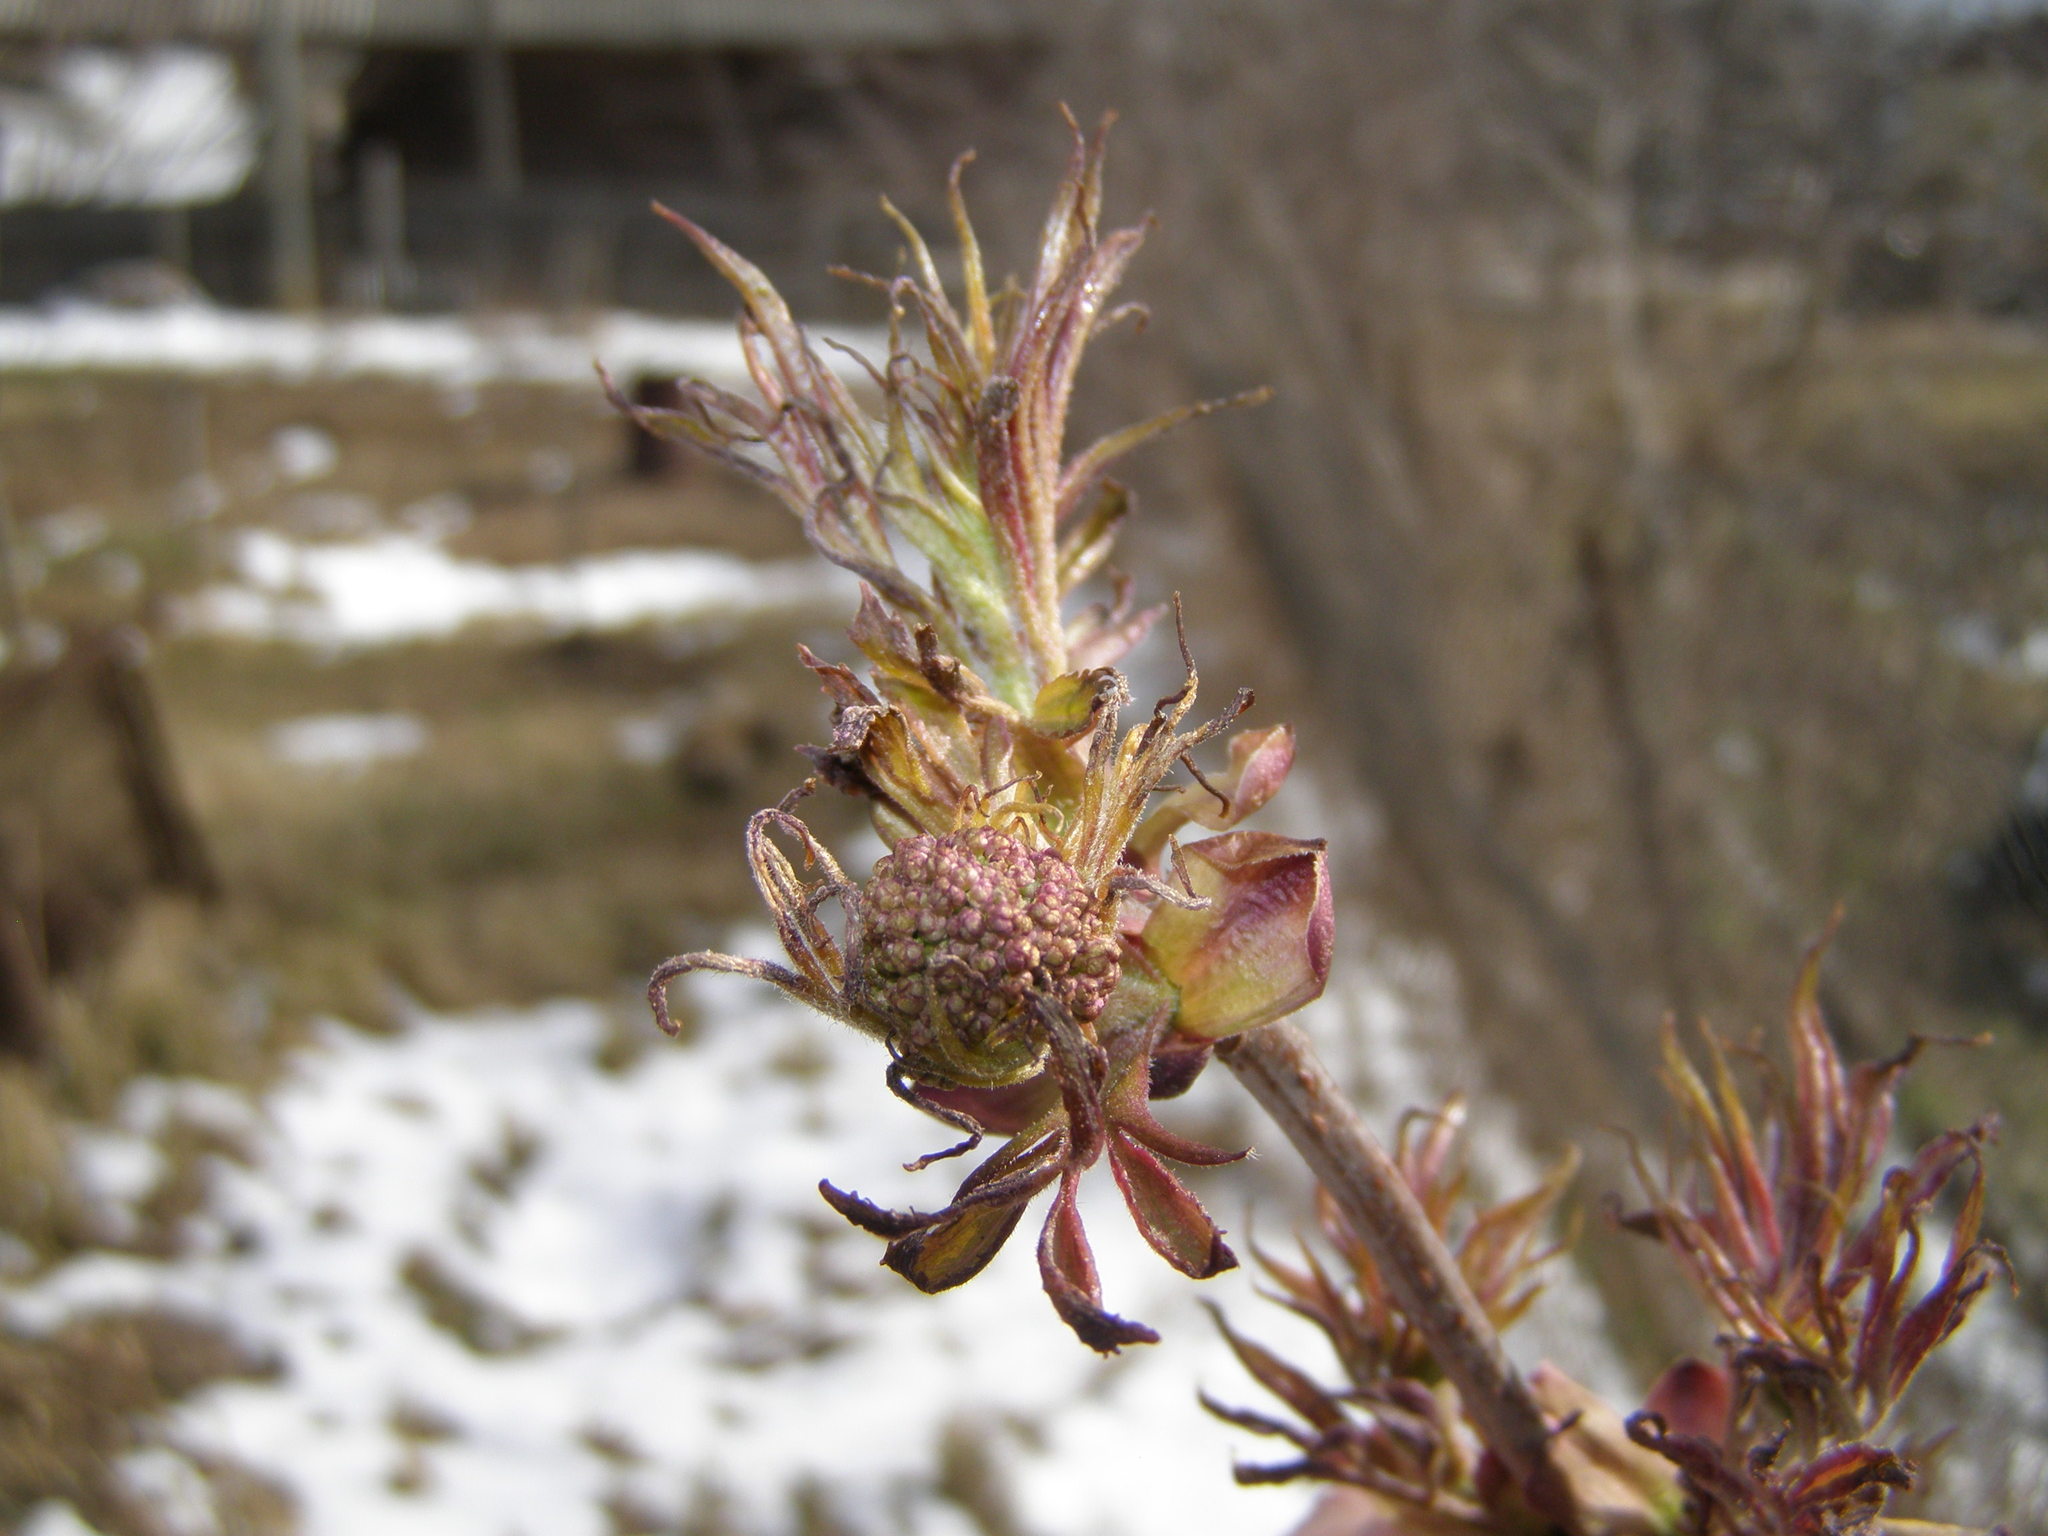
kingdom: Plantae
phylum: Tracheophyta
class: Magnoliopsida
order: Dipsacales
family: Viburnaceae
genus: Sambucus
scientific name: Sambucus racemosa
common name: Red-berried elder
